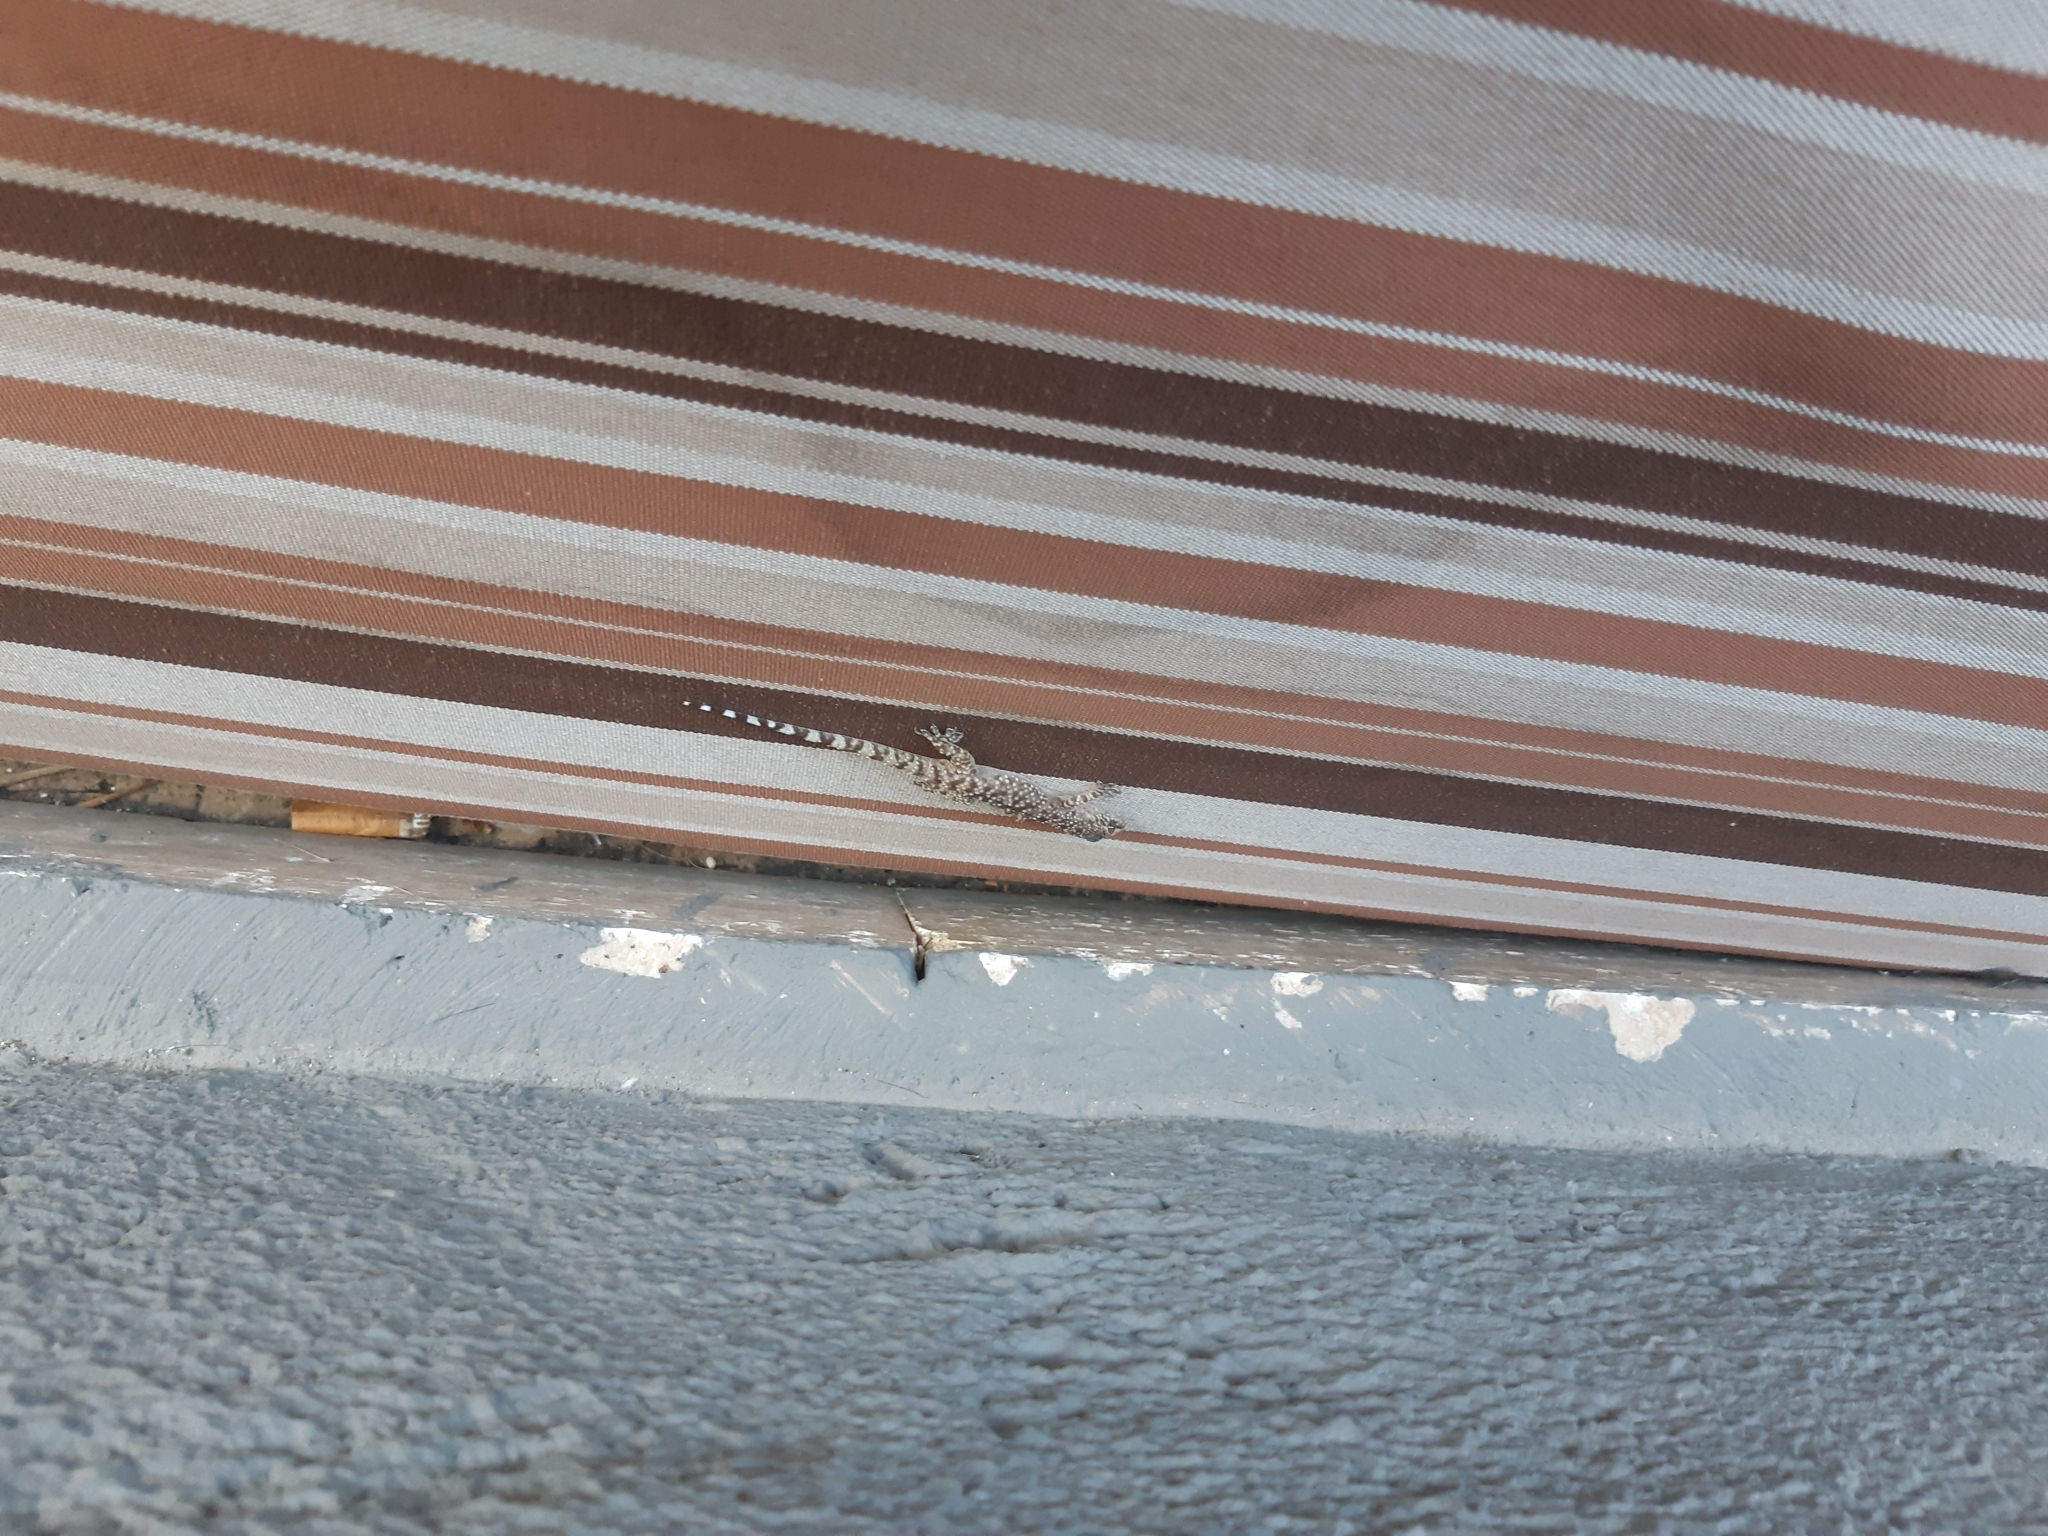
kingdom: Animalia
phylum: Chordata
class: Squamata
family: Gekkonidae
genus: Hemidactylus
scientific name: Hemidactylus turcicus
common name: Turkish gecko
